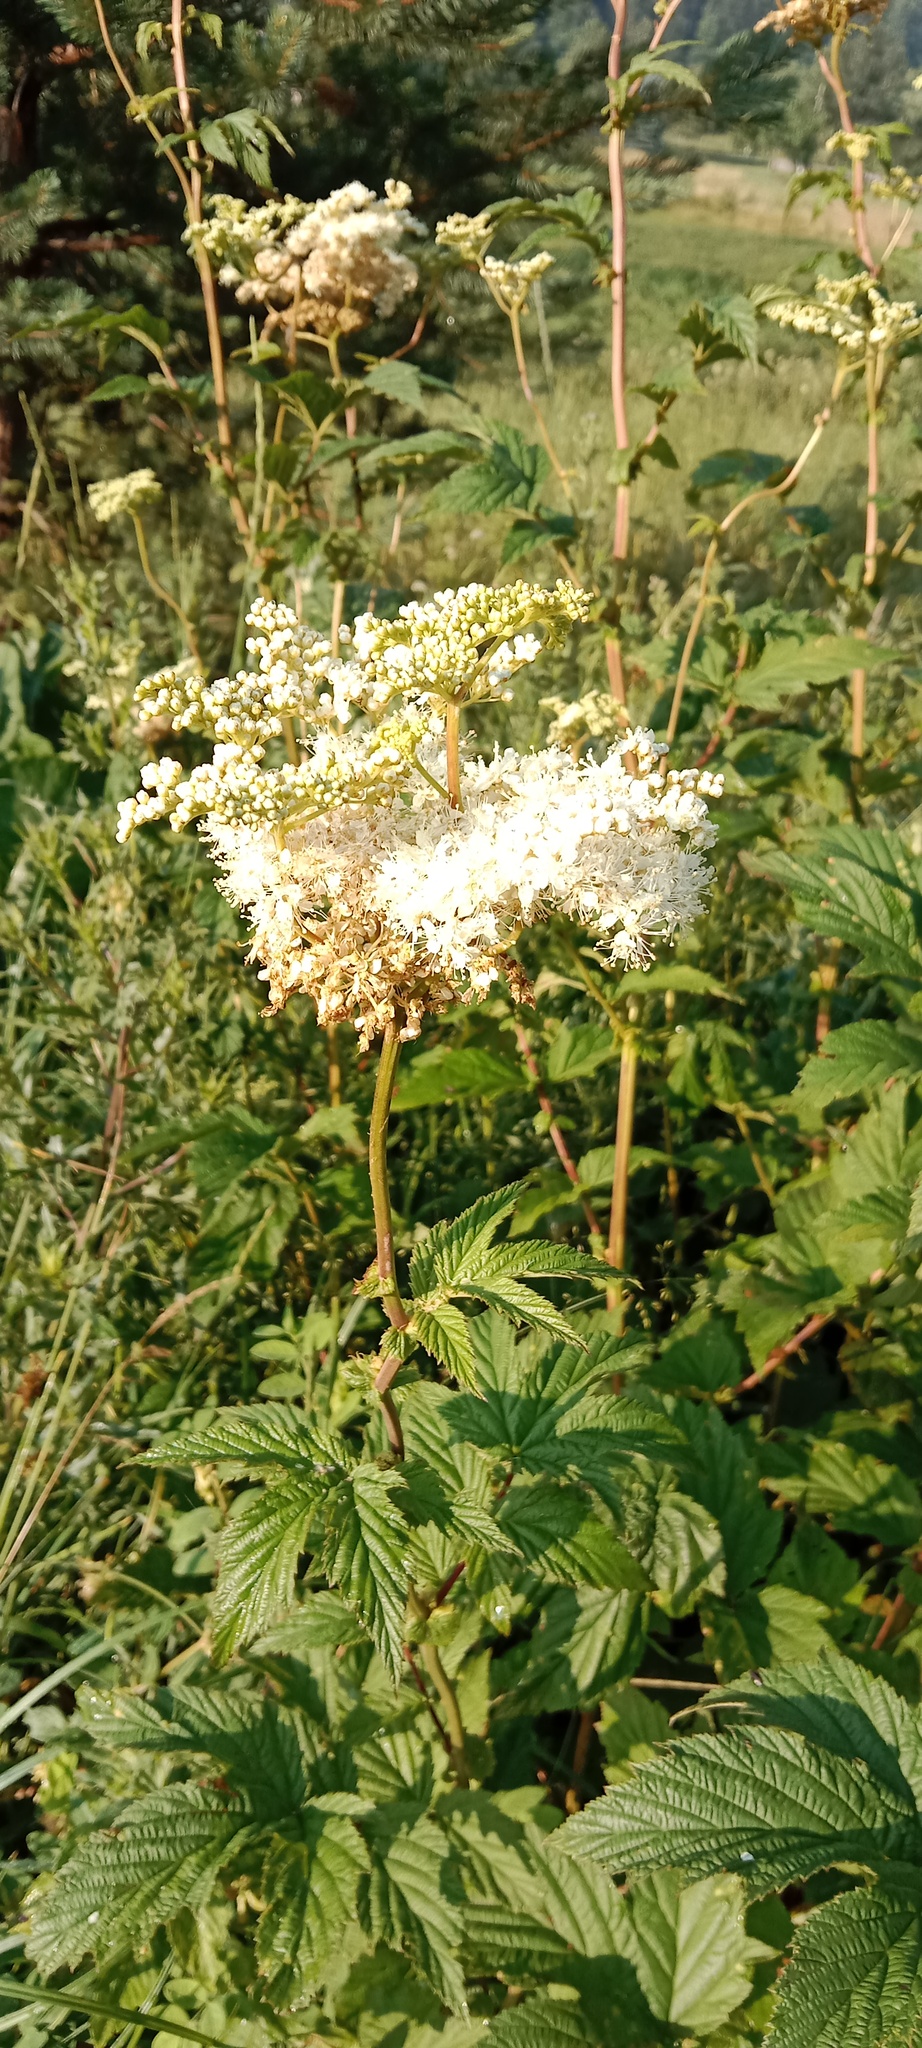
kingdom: Plantae
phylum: Tracheophyta
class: Magnoliopsida
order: Rosales
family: Rosaceae
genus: Filipendula
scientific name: Filipendula ulmaria
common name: Meadowsweet
